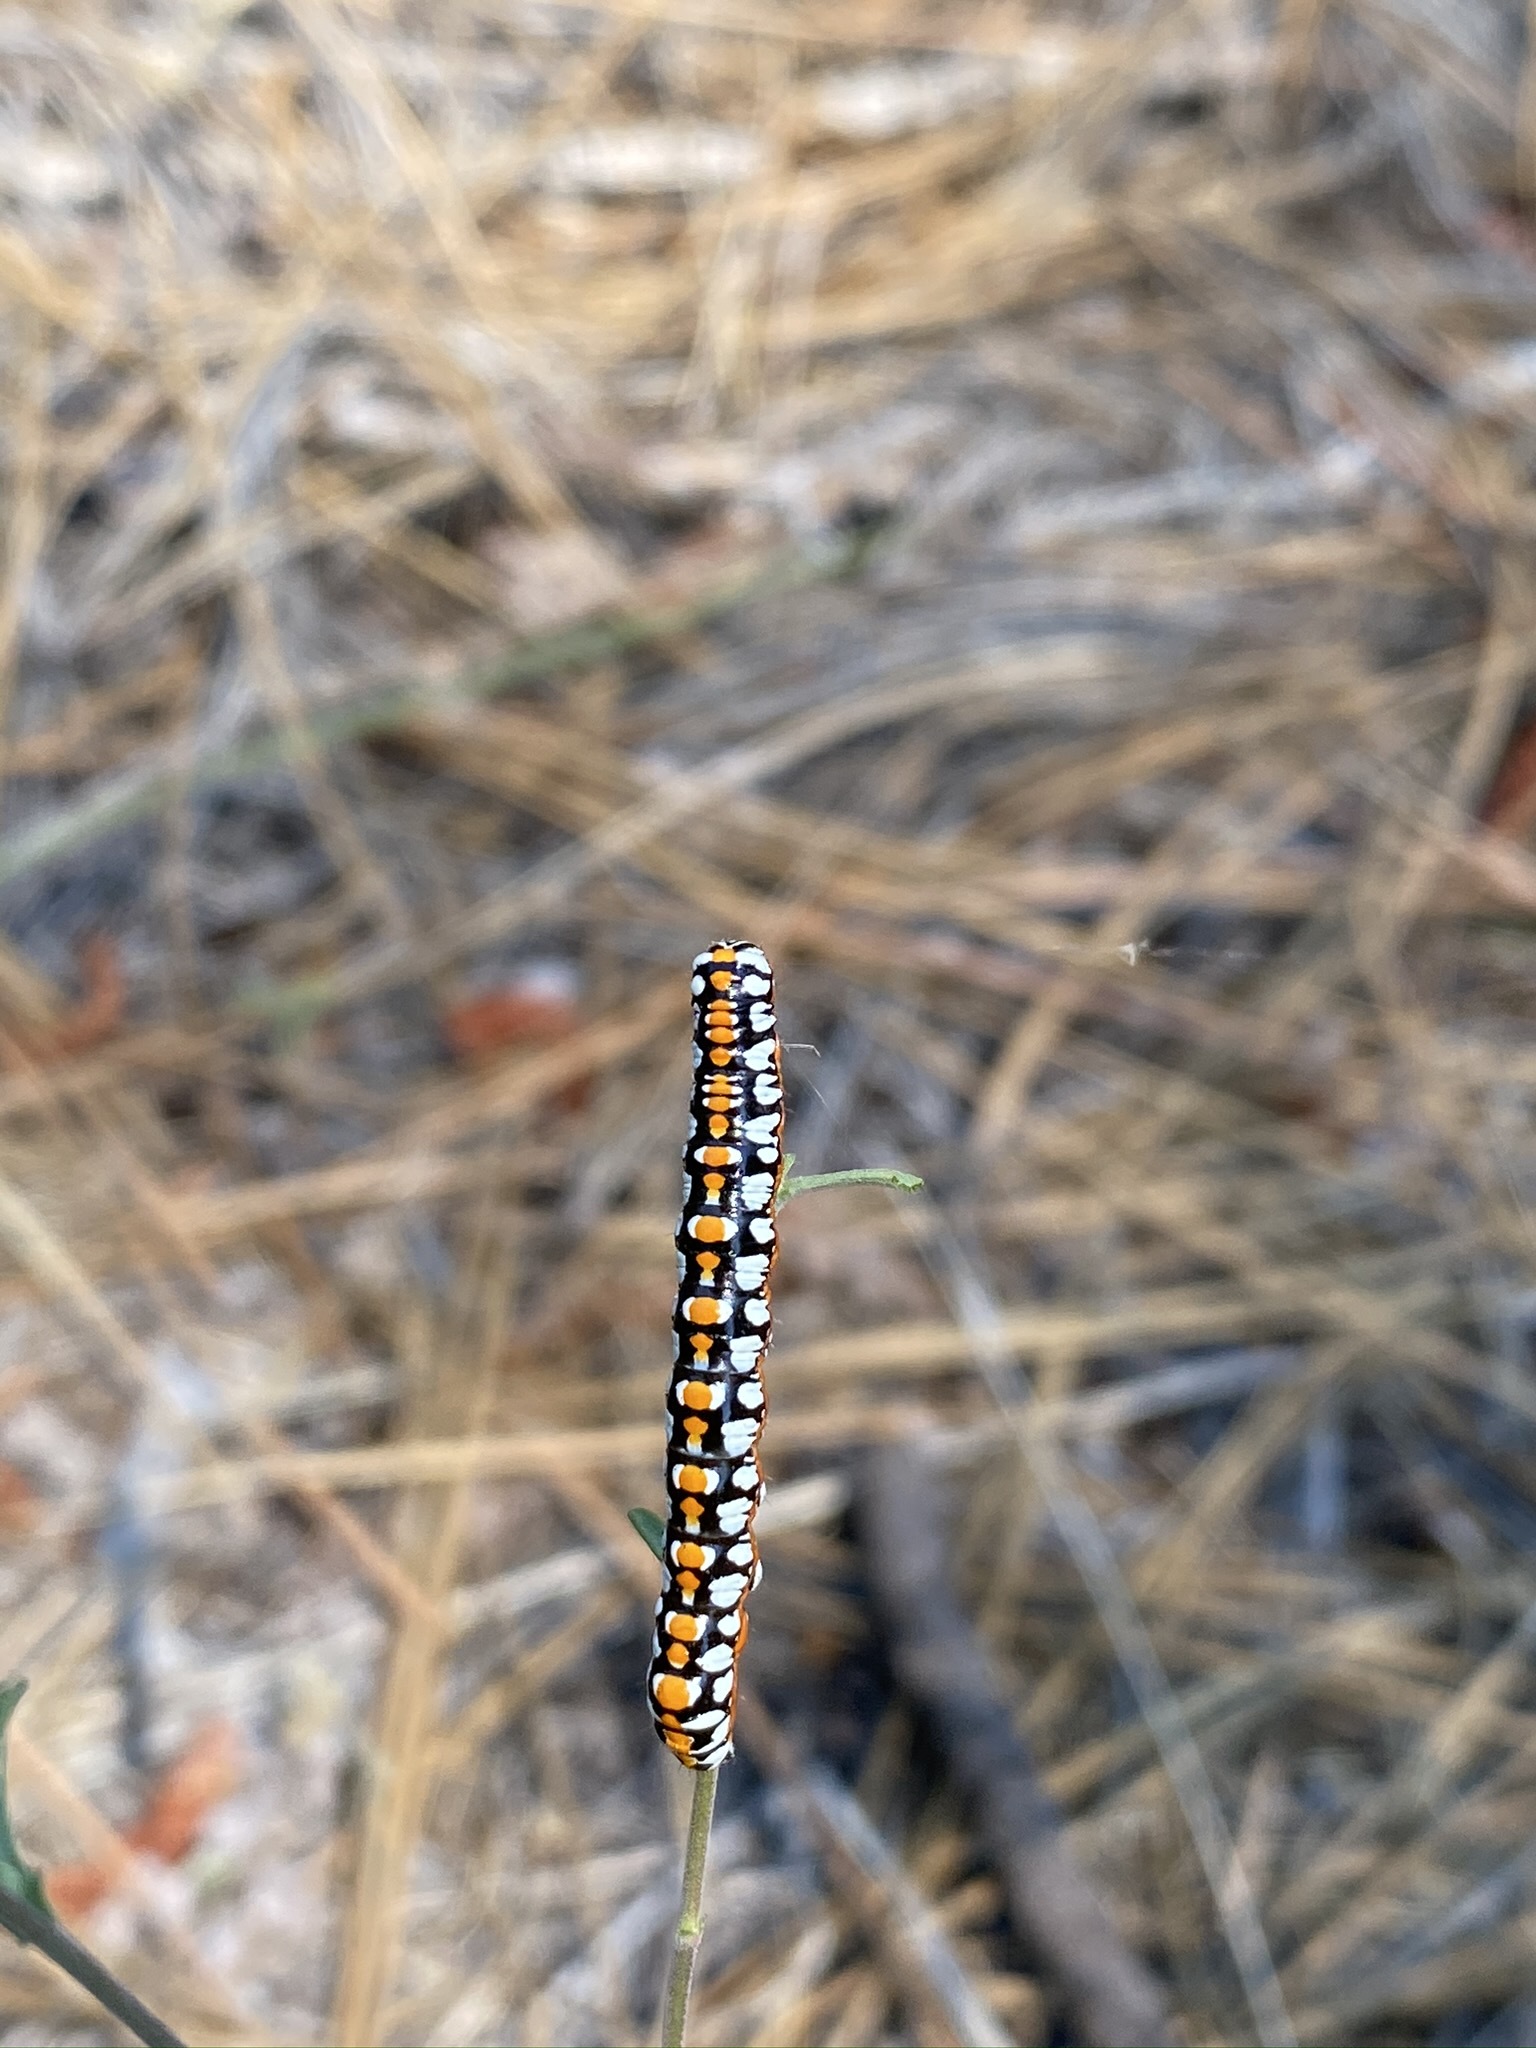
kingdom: Animalia
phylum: Arthropoda
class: Insecta
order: Lepidoptera
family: Noctuidae
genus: Cucullia
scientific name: Cucullia dorsalis
